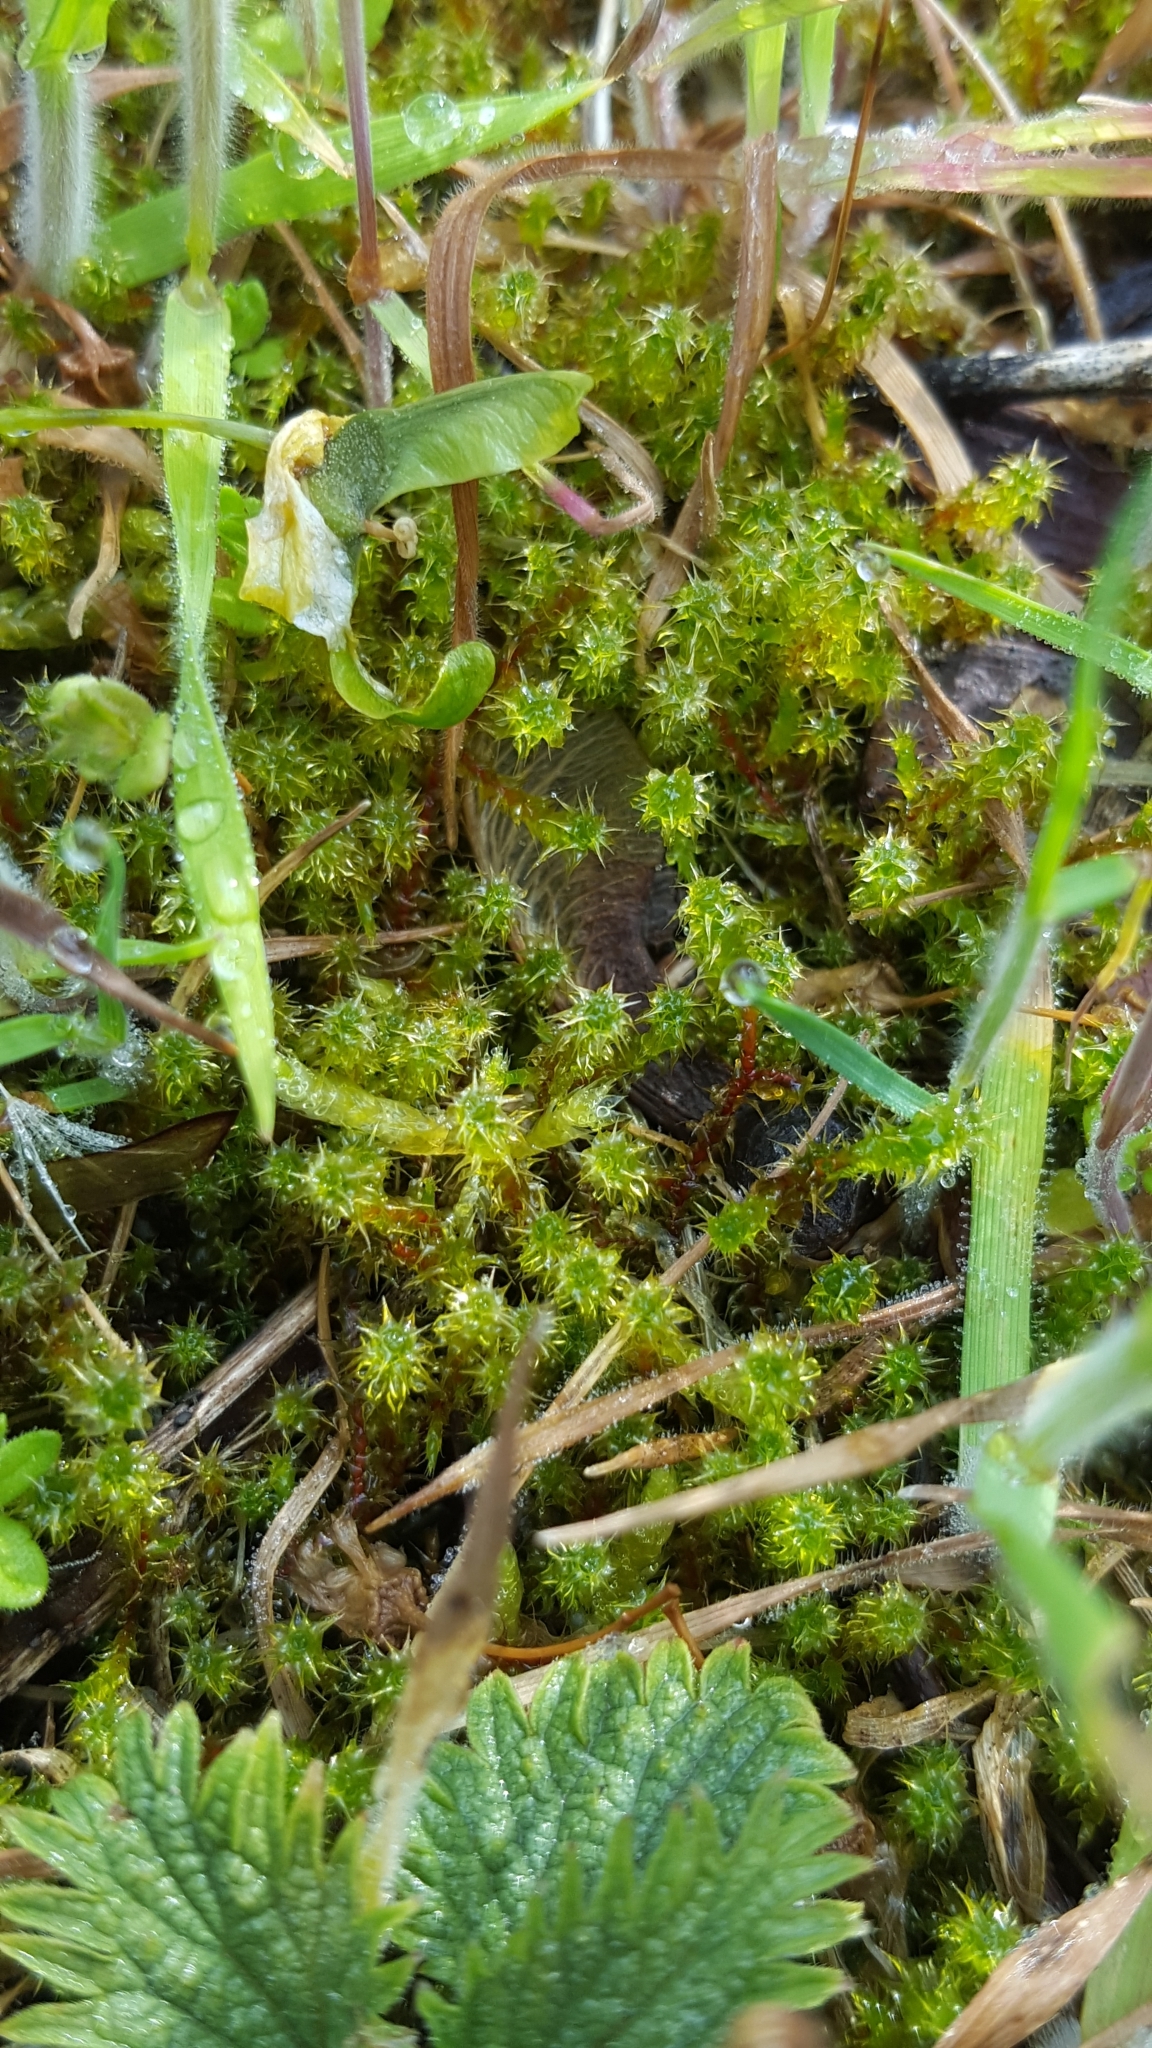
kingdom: Plantae
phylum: Bryophyta
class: Bryopsida
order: Hypnales
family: Hylocomiaceae
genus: Rhytidiadelphus
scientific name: Rhytidiadelphus squarrosus
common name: Springy turf-moss
